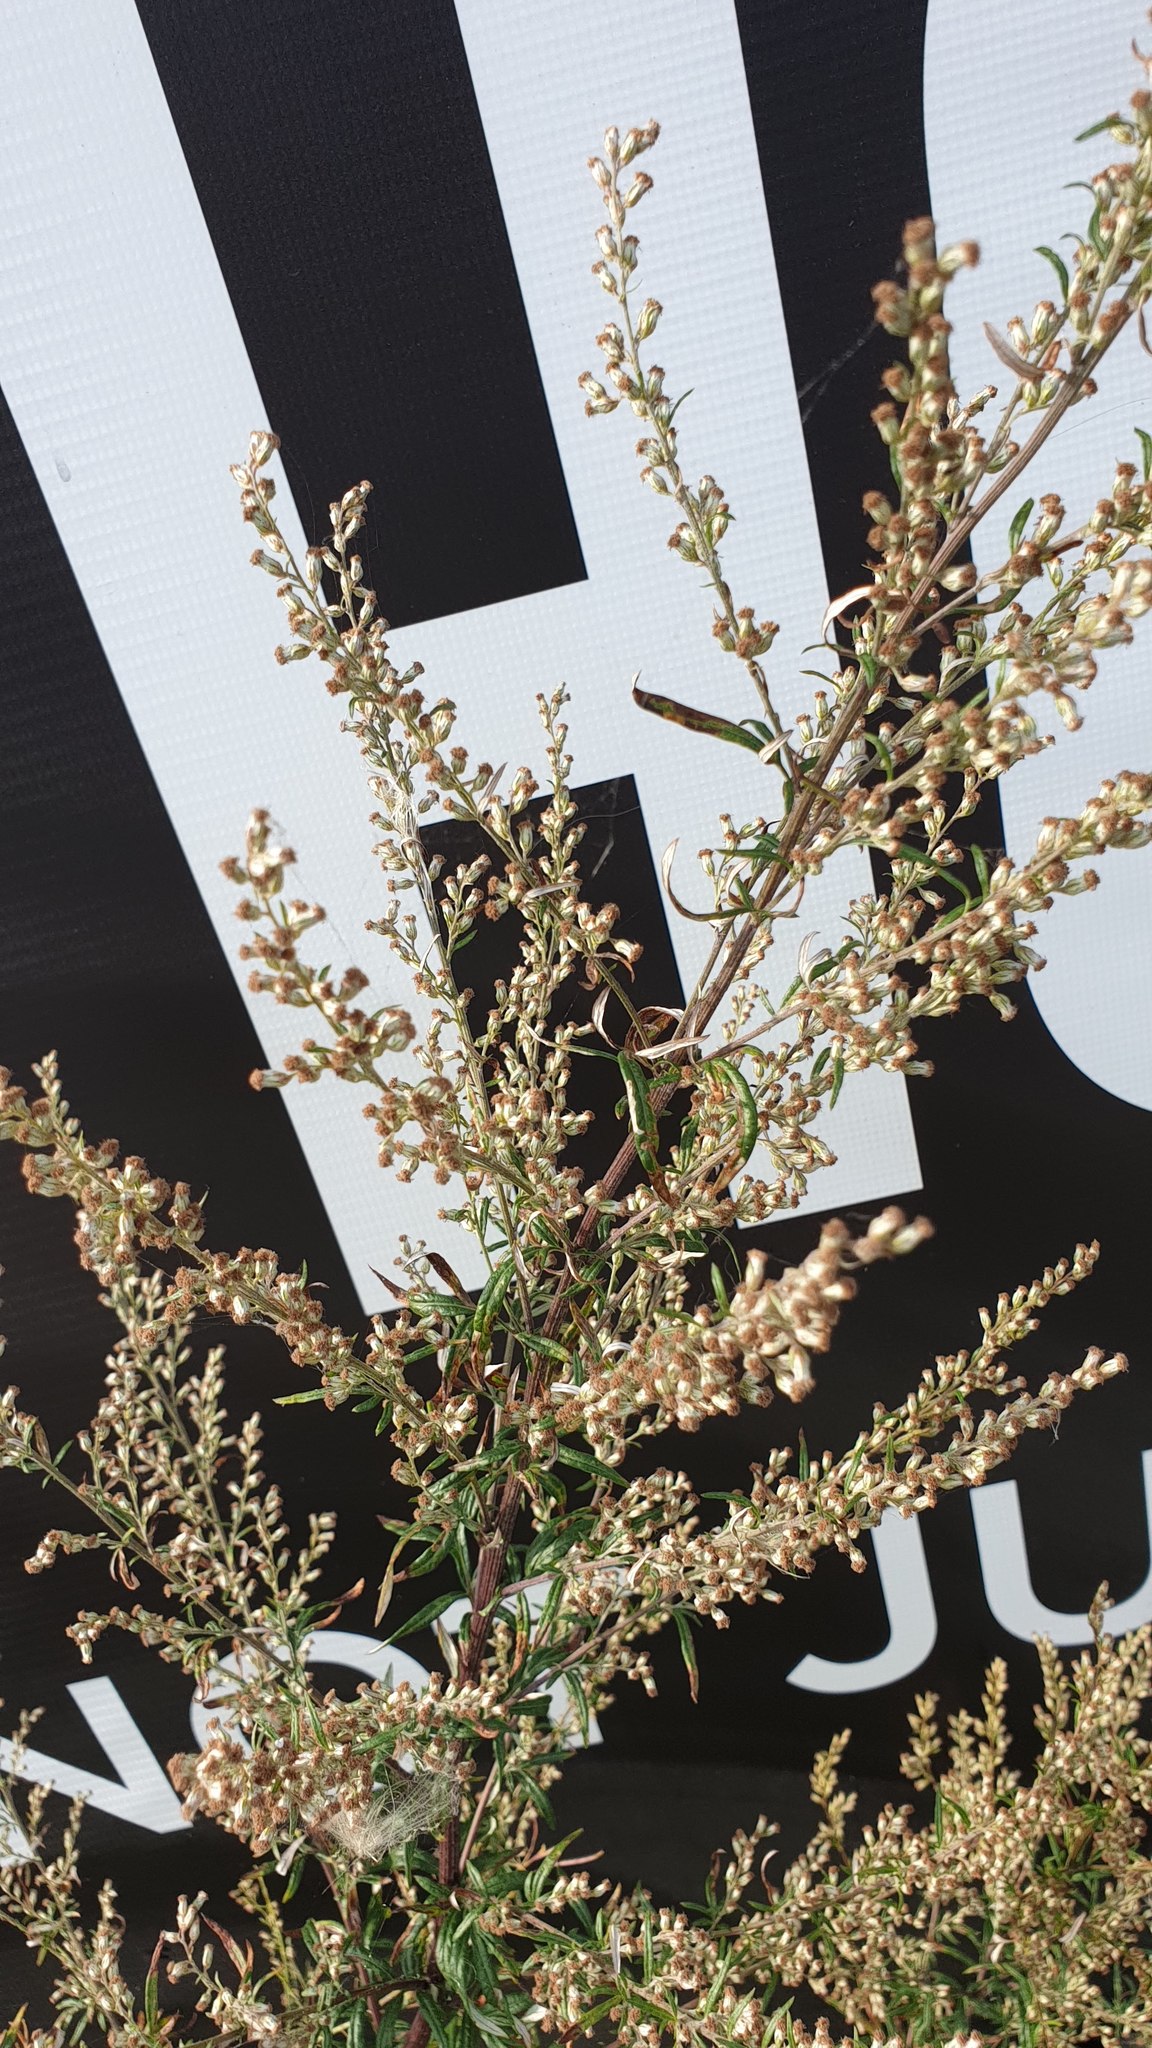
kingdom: Plantae
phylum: Tracheophyta
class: Magnoliopsida
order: Asterales
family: Asteraceae
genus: Artemisia
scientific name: Artemisia vulgaris
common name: Mugwort
